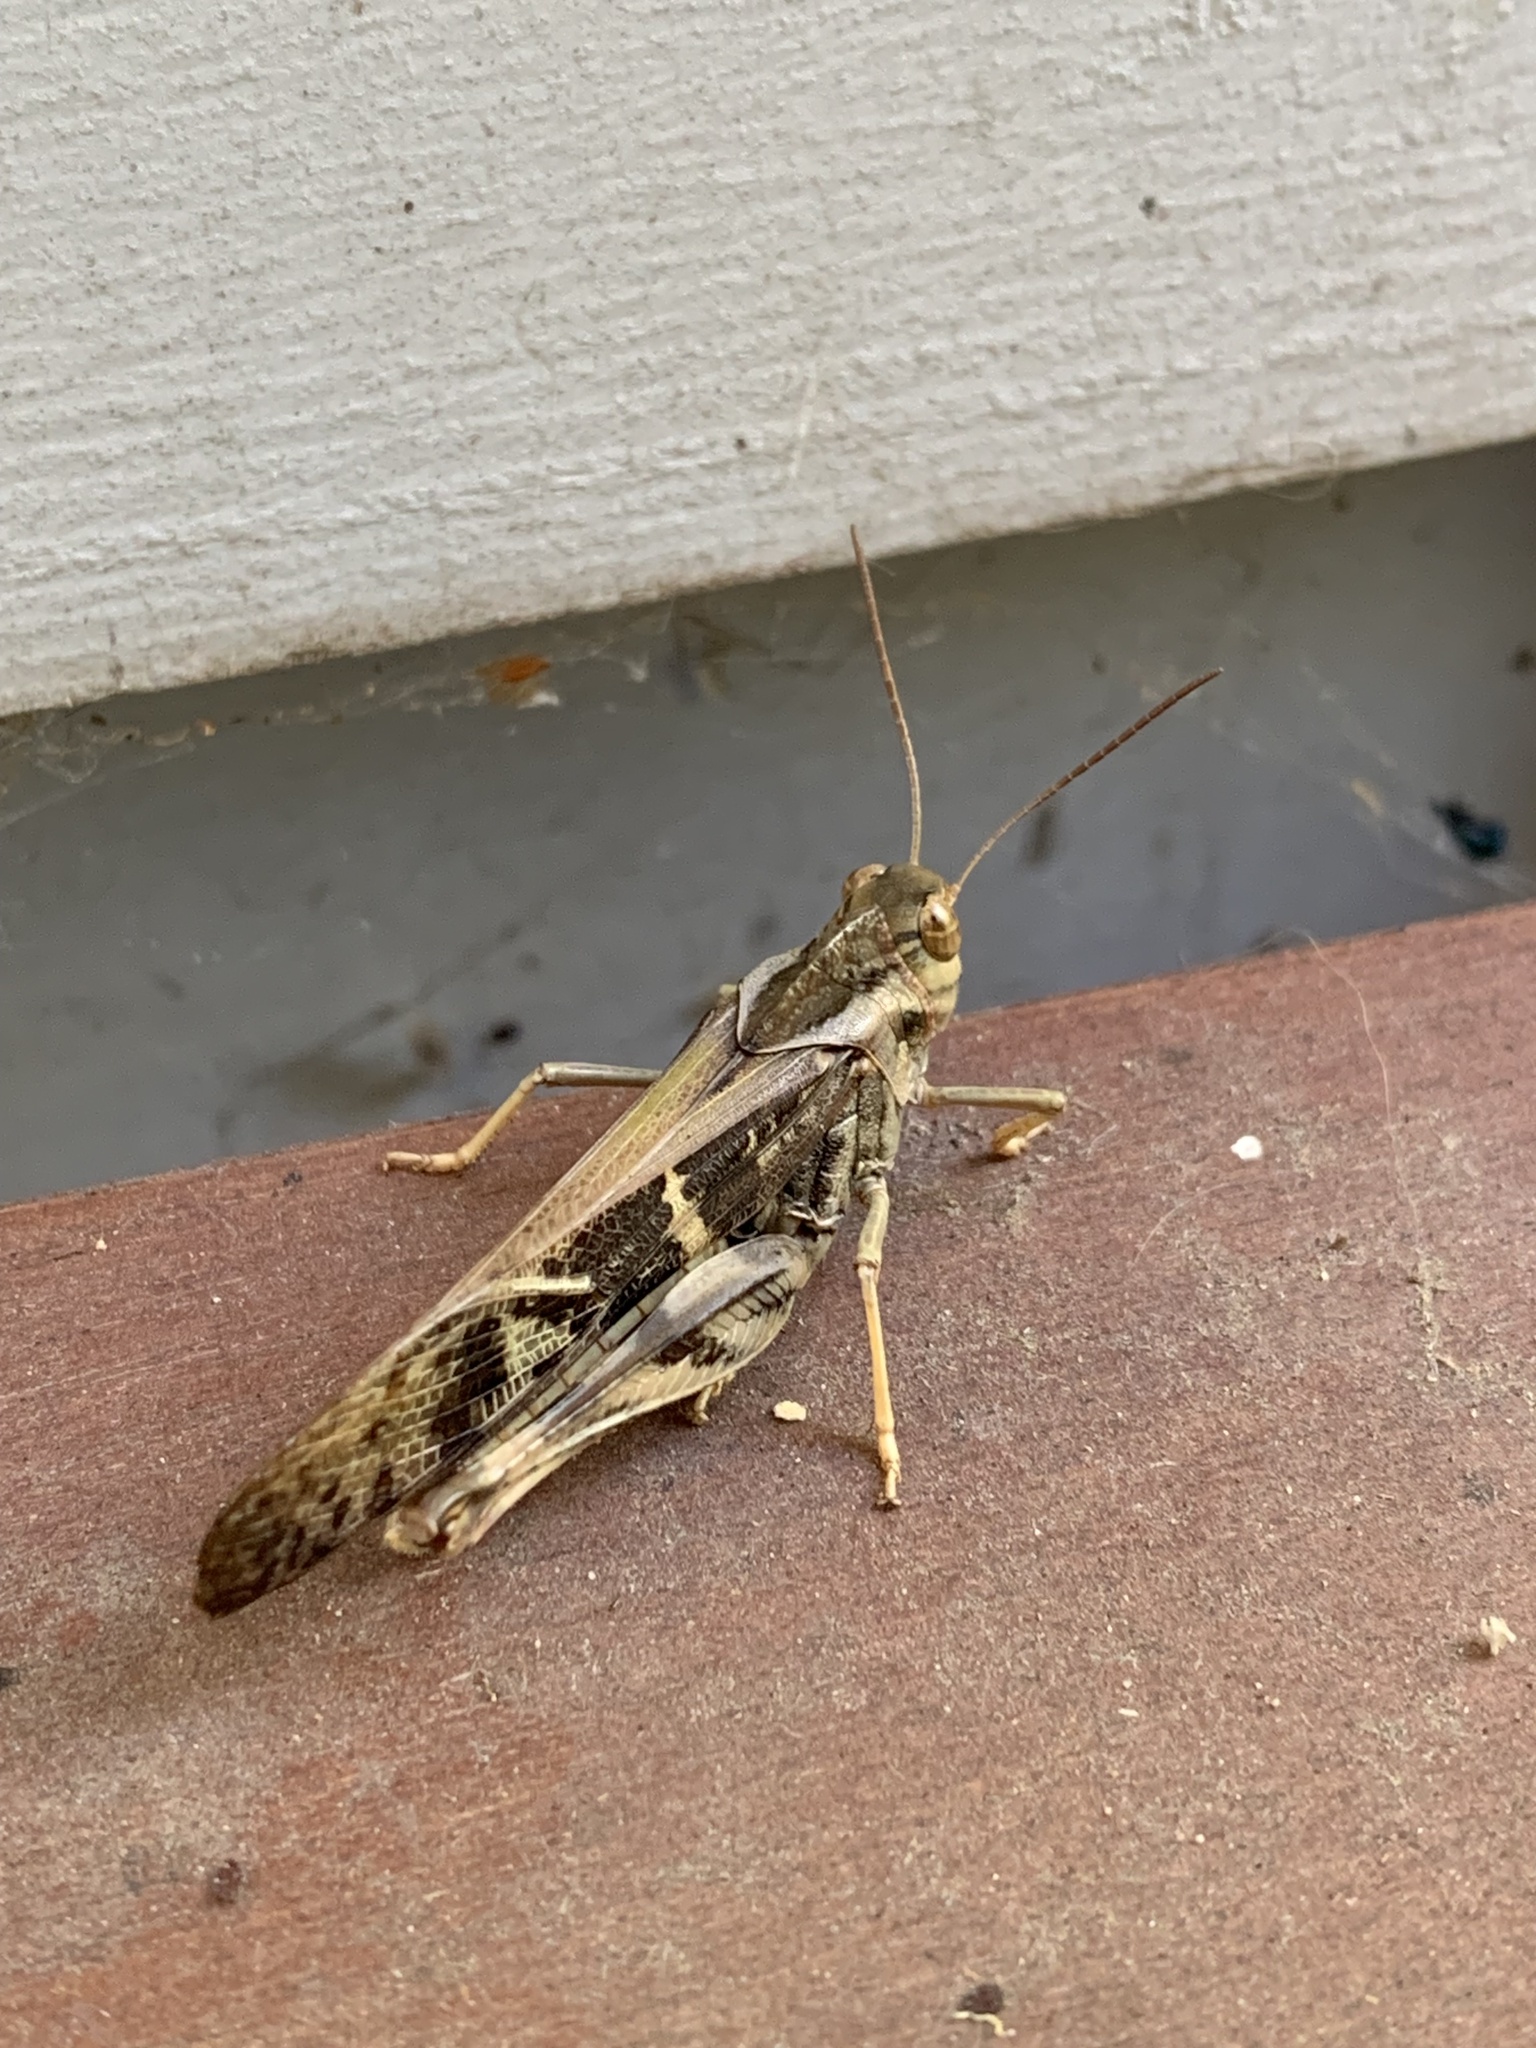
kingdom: Animalia
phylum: Arthropoda
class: Insecta
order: Orthoptera
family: Acrididae
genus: Gastrimargus
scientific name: Gastrimargus musicus
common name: Yellow-winged locust
